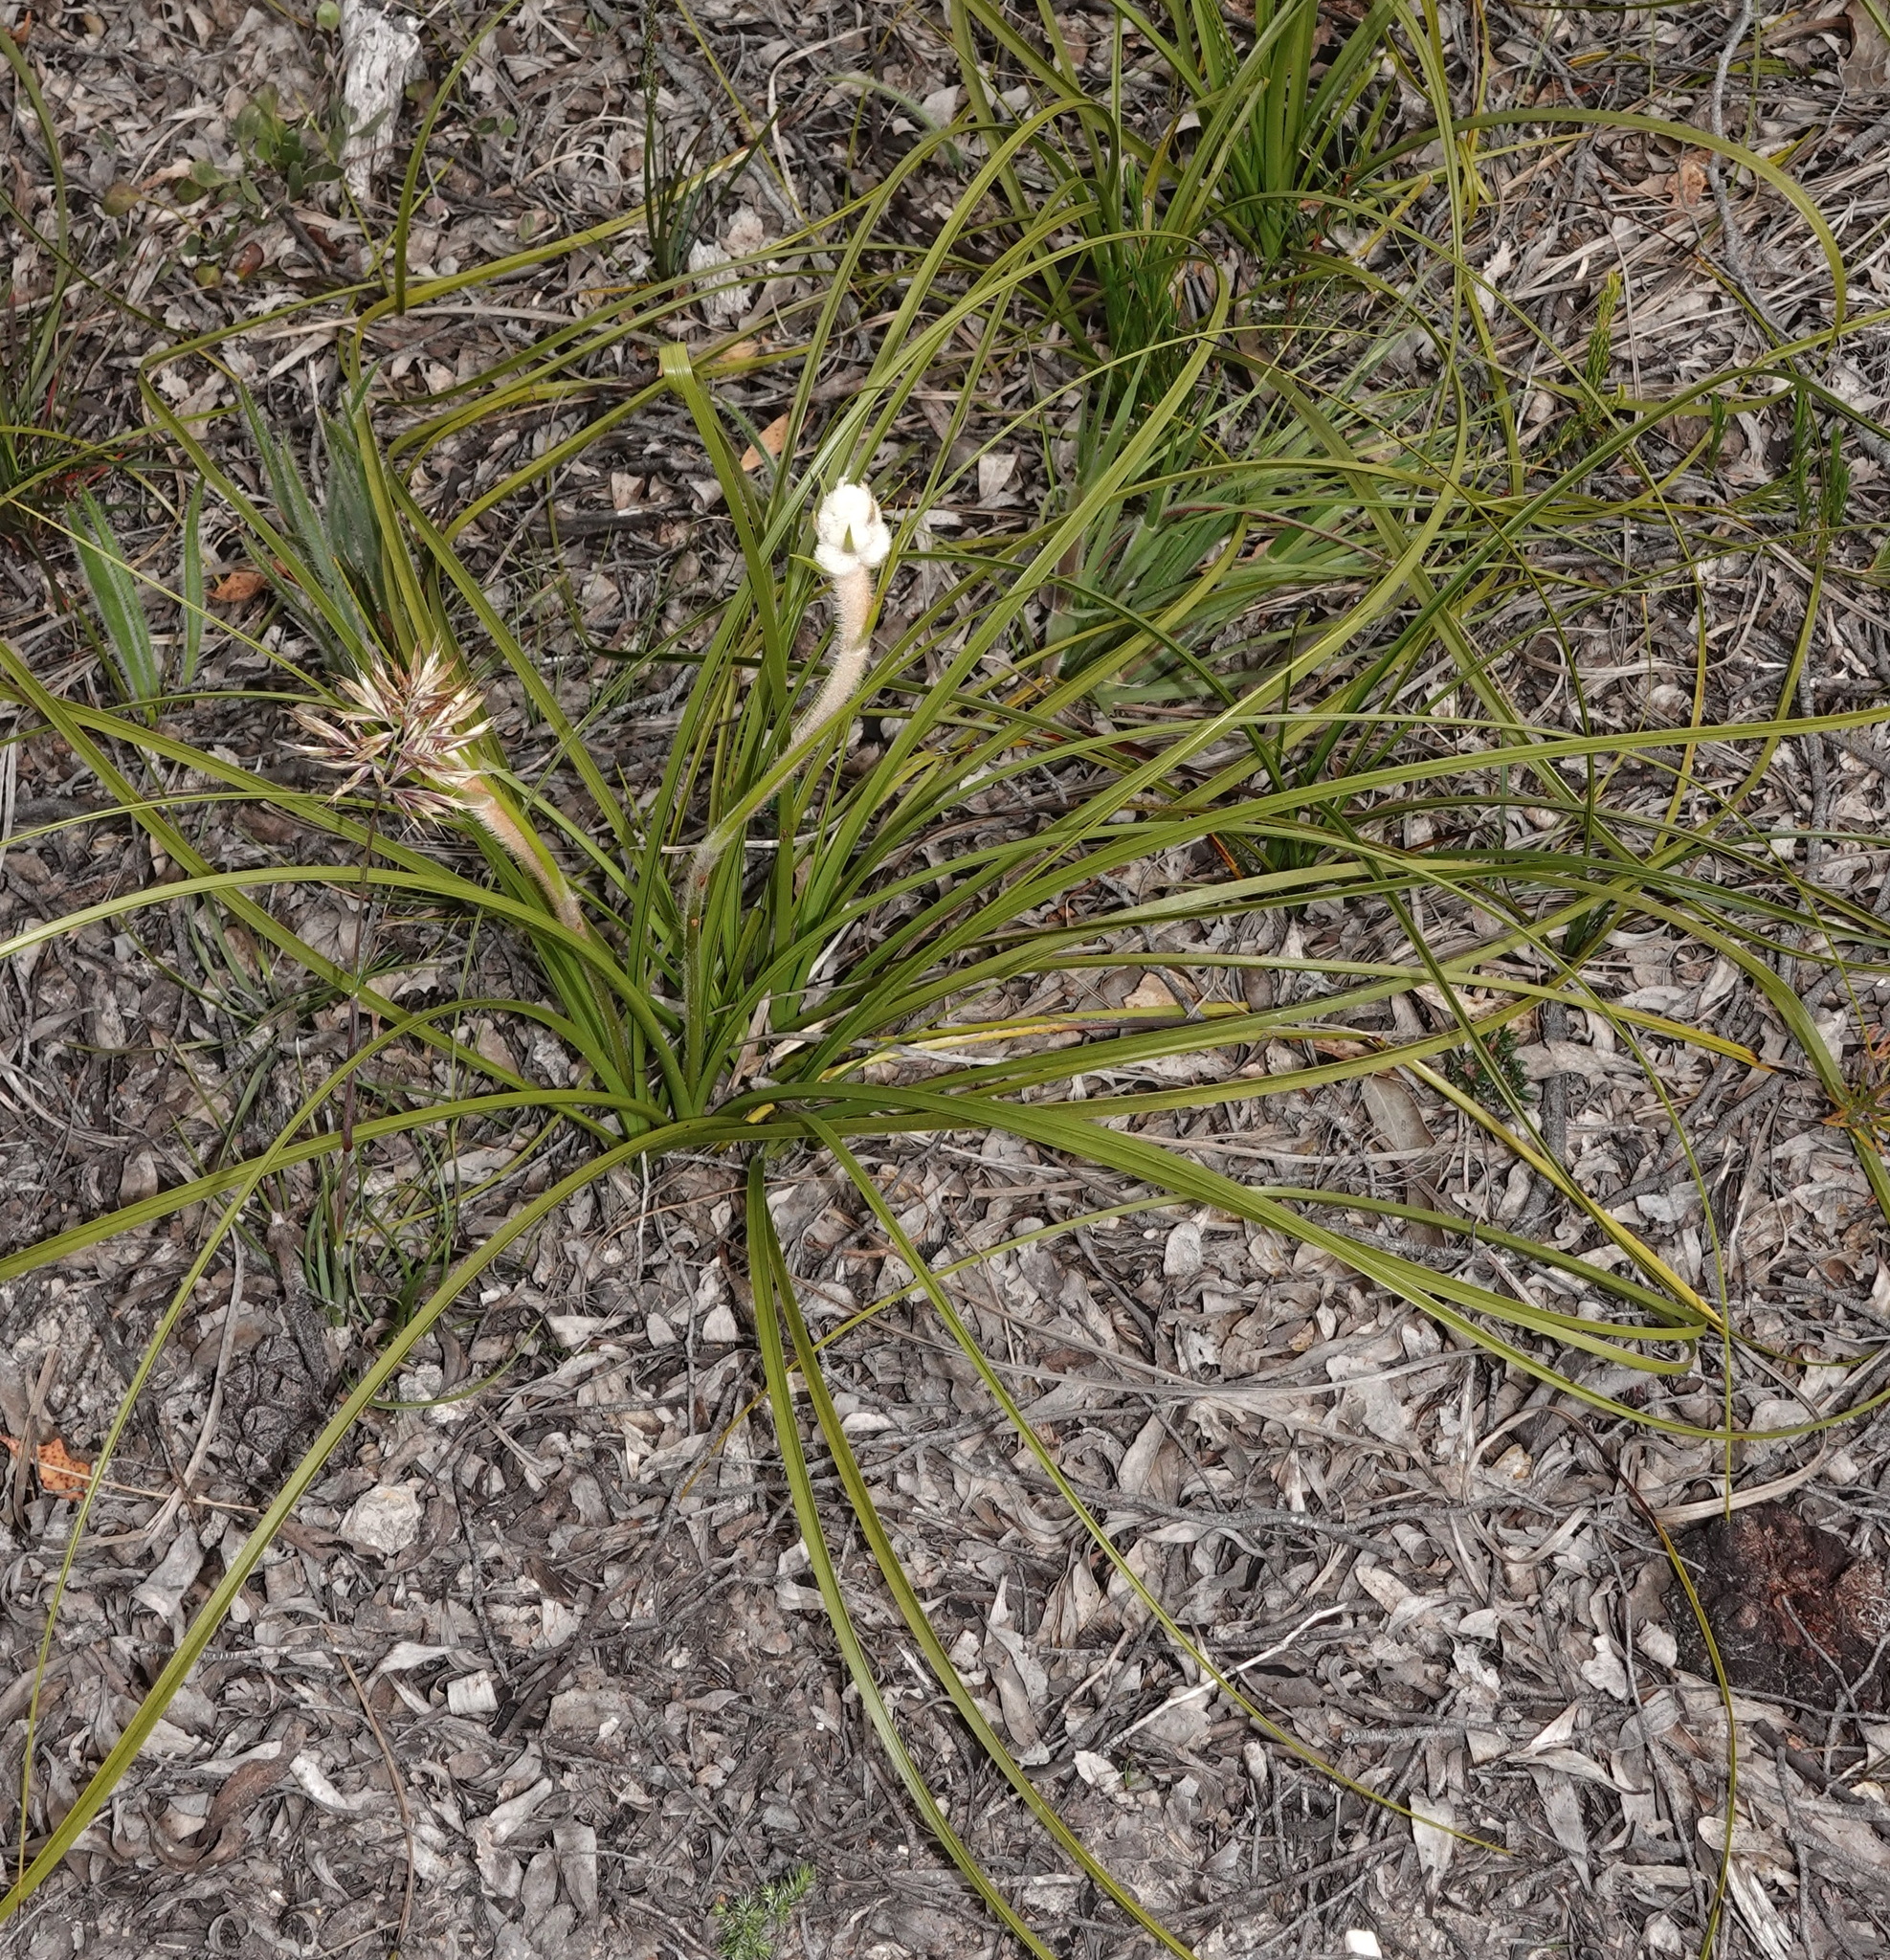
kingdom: Plantae
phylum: Tracheophyta
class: Liliopsida
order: Asparagales
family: Lanariaceae
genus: Lanaria
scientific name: Lanaria lanata
